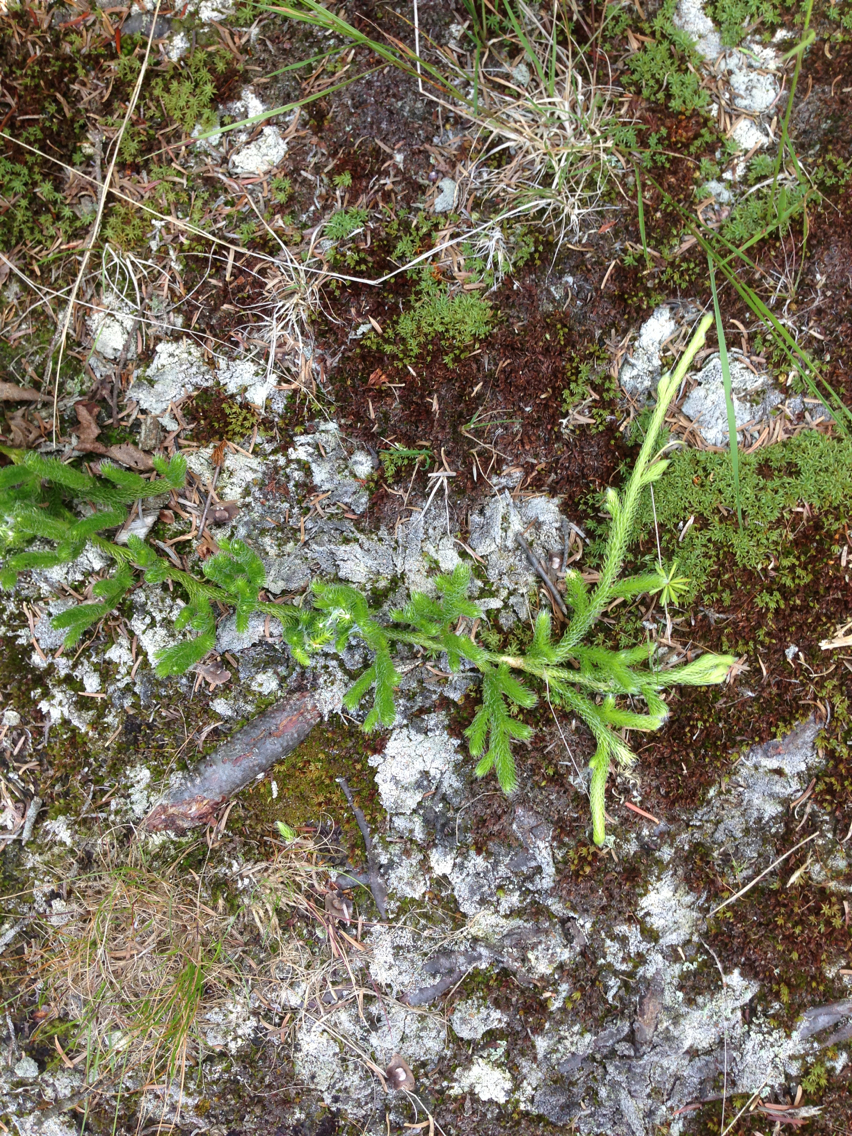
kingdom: Plantae
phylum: Tracheophyta
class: Lycopodiopsida
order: Lycopodiales
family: Lycopodiaceae
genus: Lycopodium
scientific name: Lycopodium clavatum
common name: Stag's-horn clubmoss
